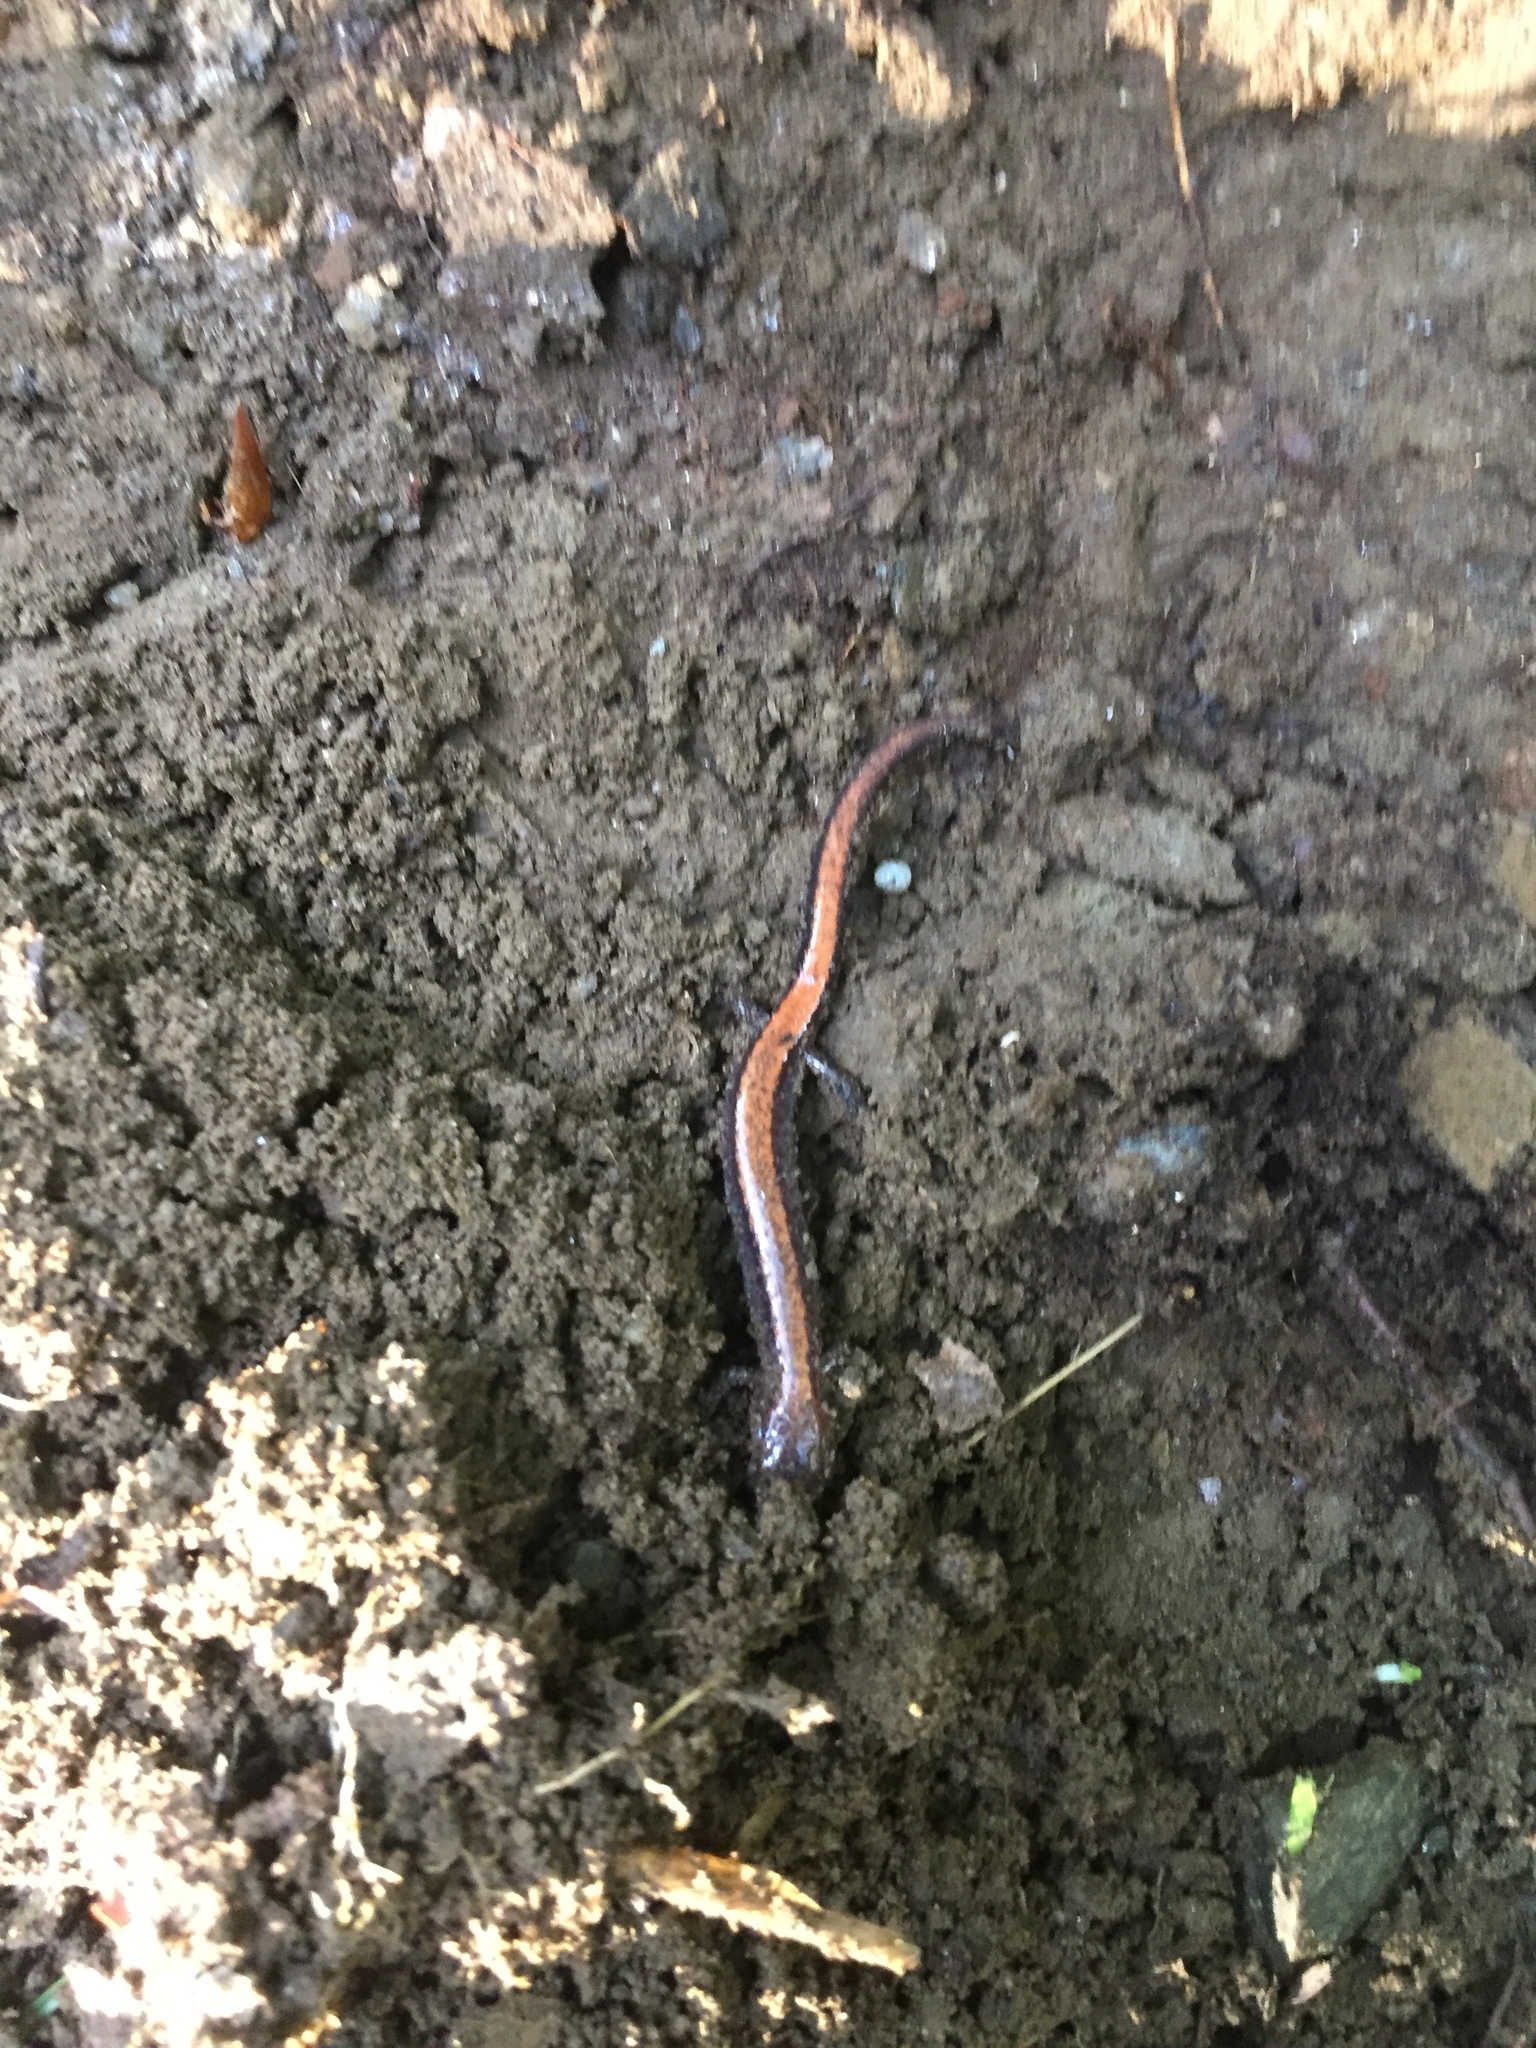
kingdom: Animalia
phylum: Chordata
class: Amphibia
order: Caudata
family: Plethodontidae
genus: Plethodon
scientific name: Plethodon cinereus
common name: Redback salamander
